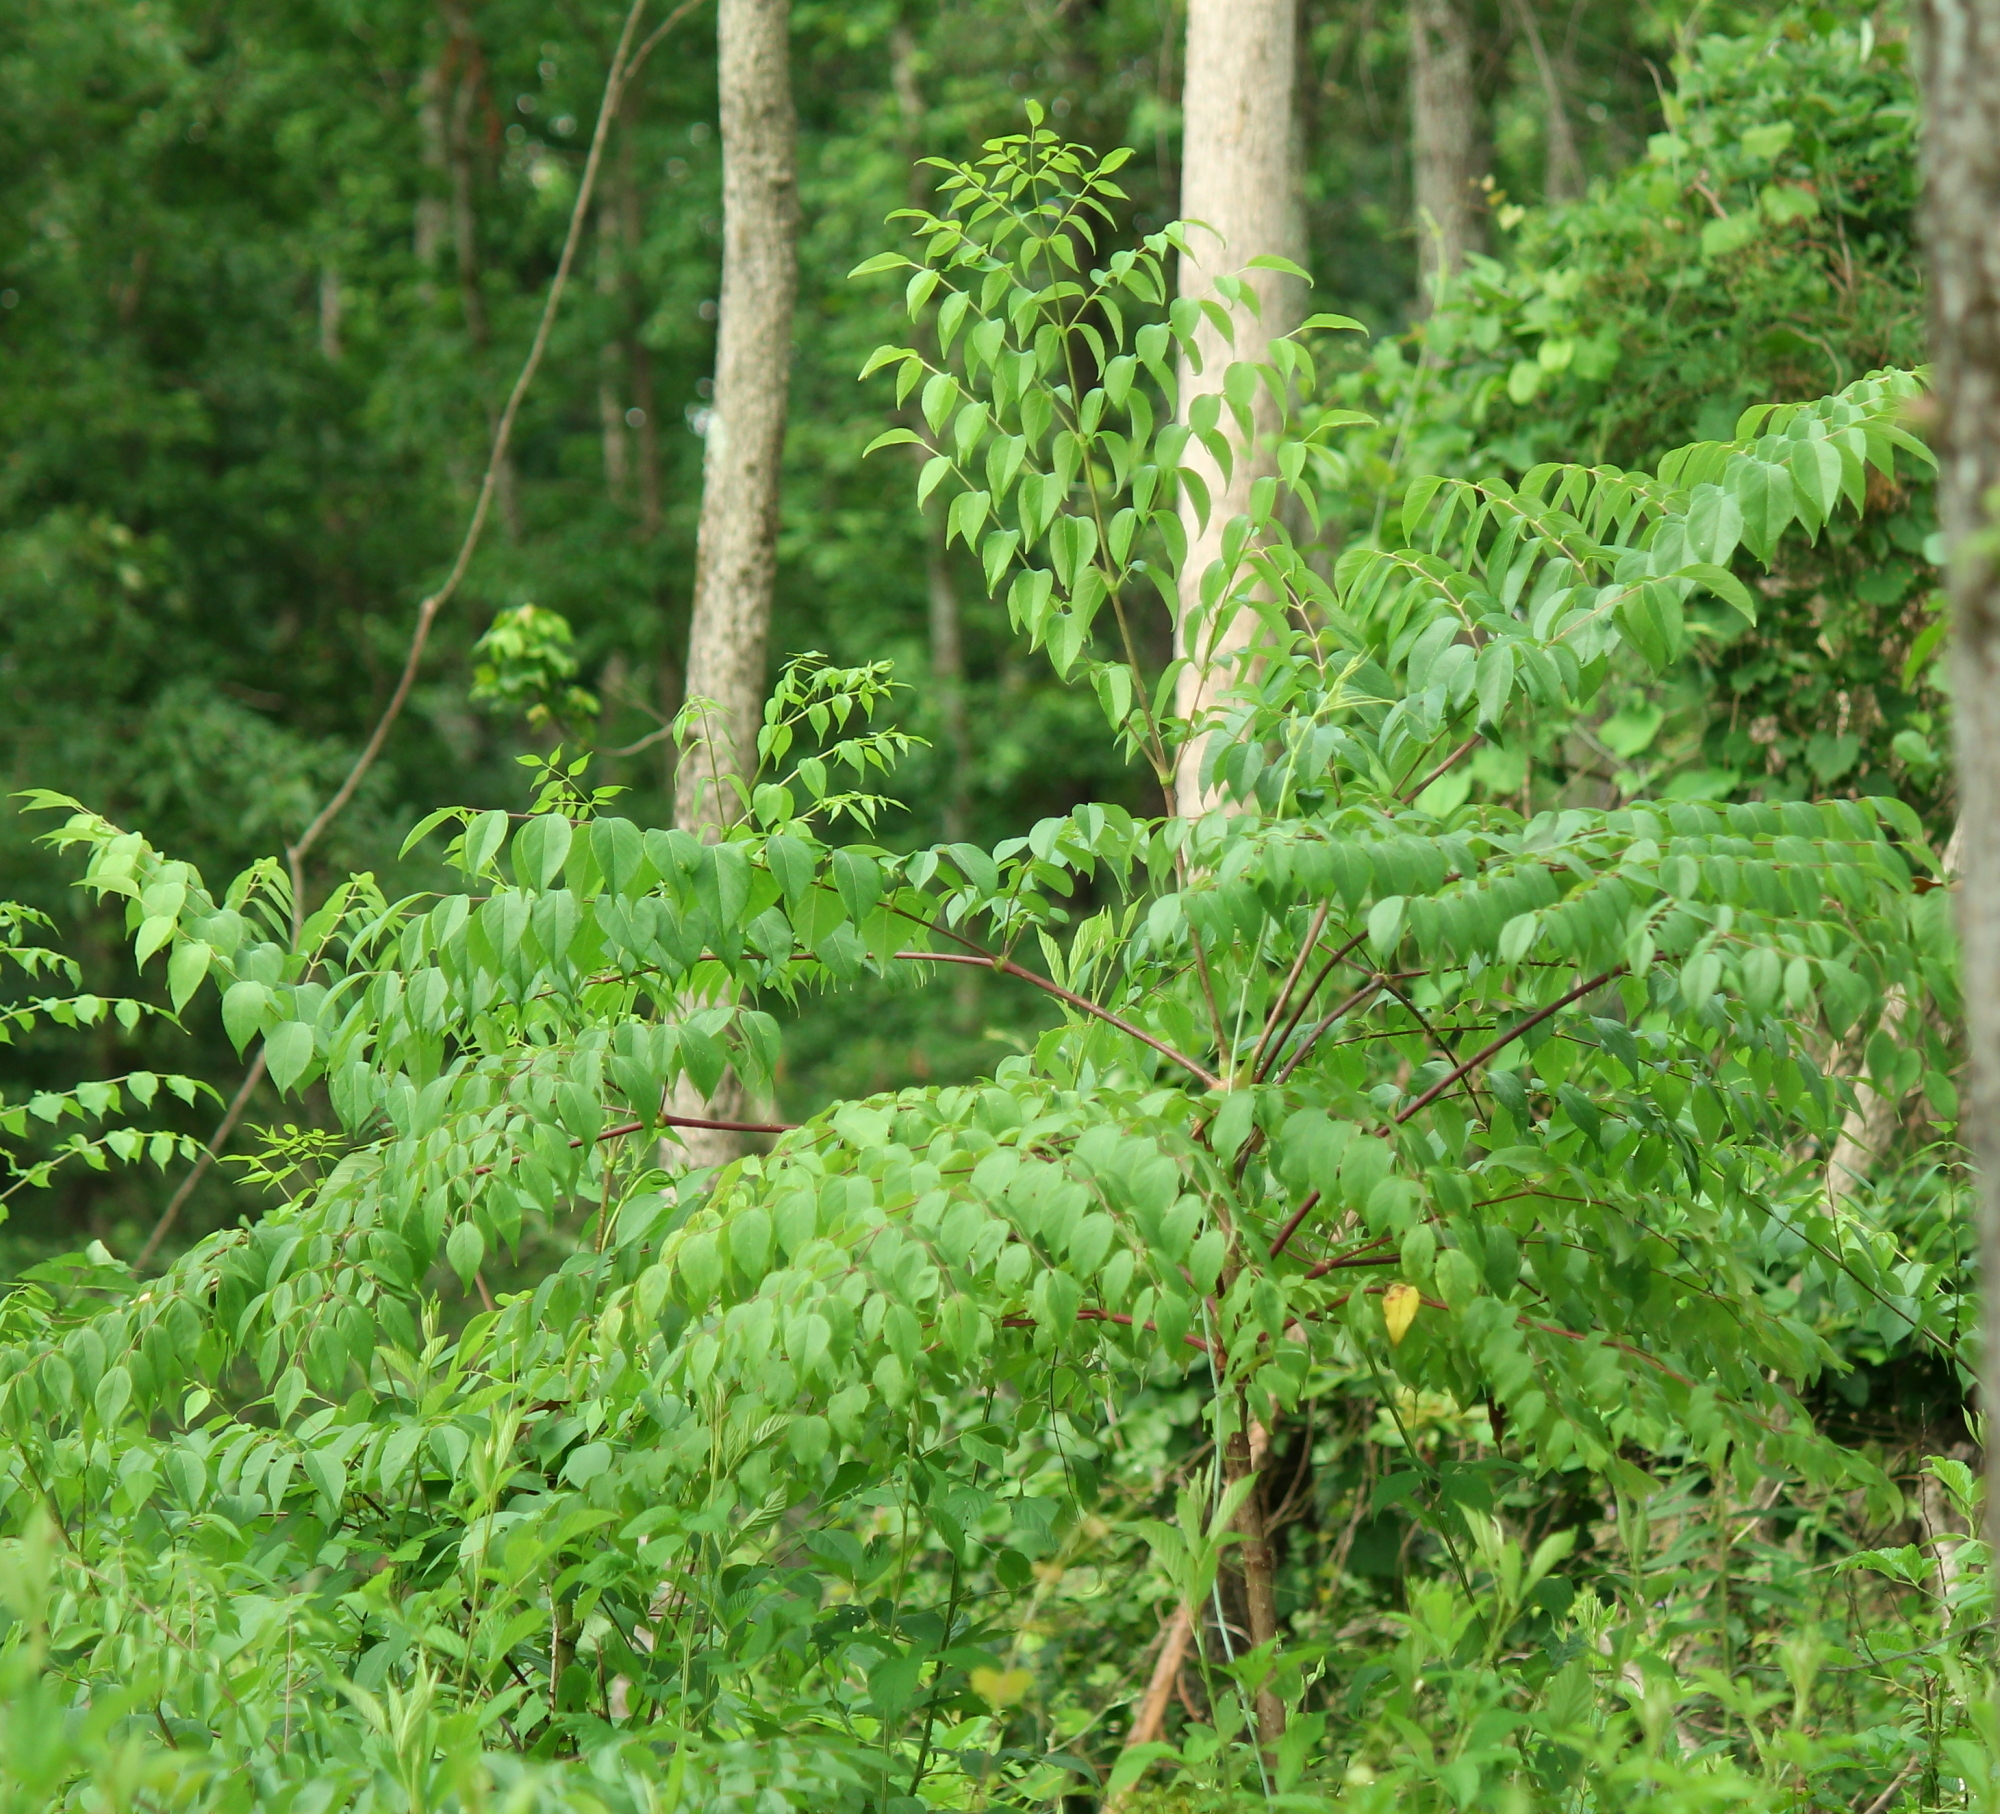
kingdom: Plantae
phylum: Tracheophyta
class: Magnoliopsida
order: Apiales
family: Araliaceae
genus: Aralia
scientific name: Aralia spinosa
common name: Hercules'-club
